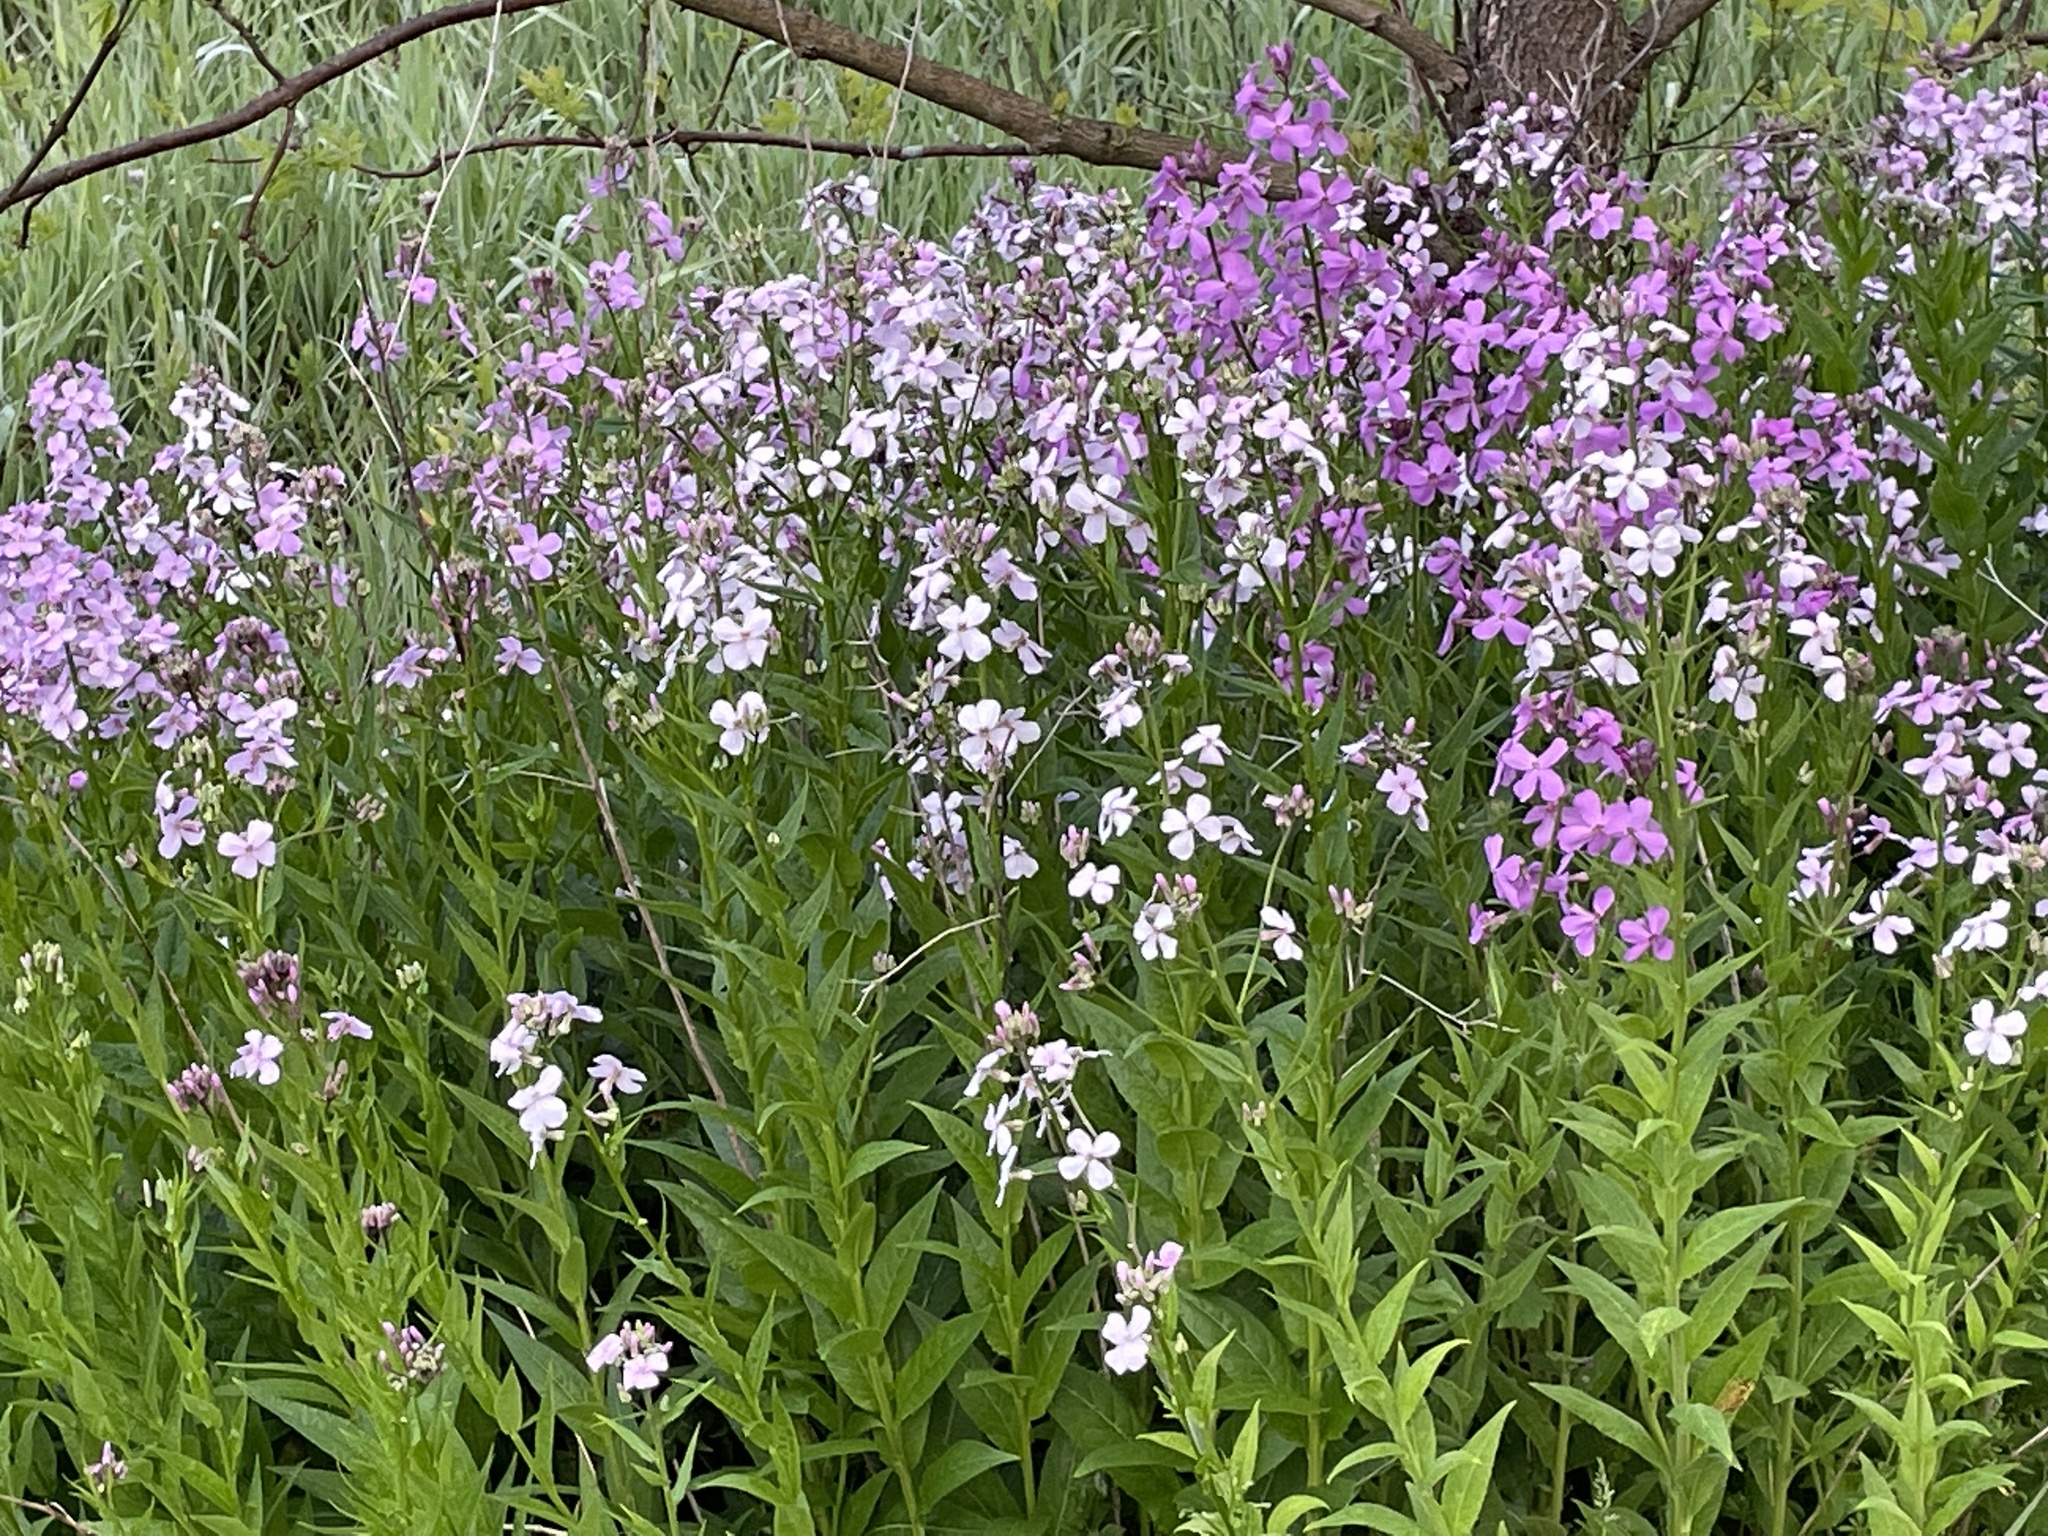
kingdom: Plantae
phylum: Tracheophyta
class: Magnoliopsida
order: Brassicales
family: Brassicaceae
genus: Hesperis
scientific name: Hesperis matronalis
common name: Dame's-violet
